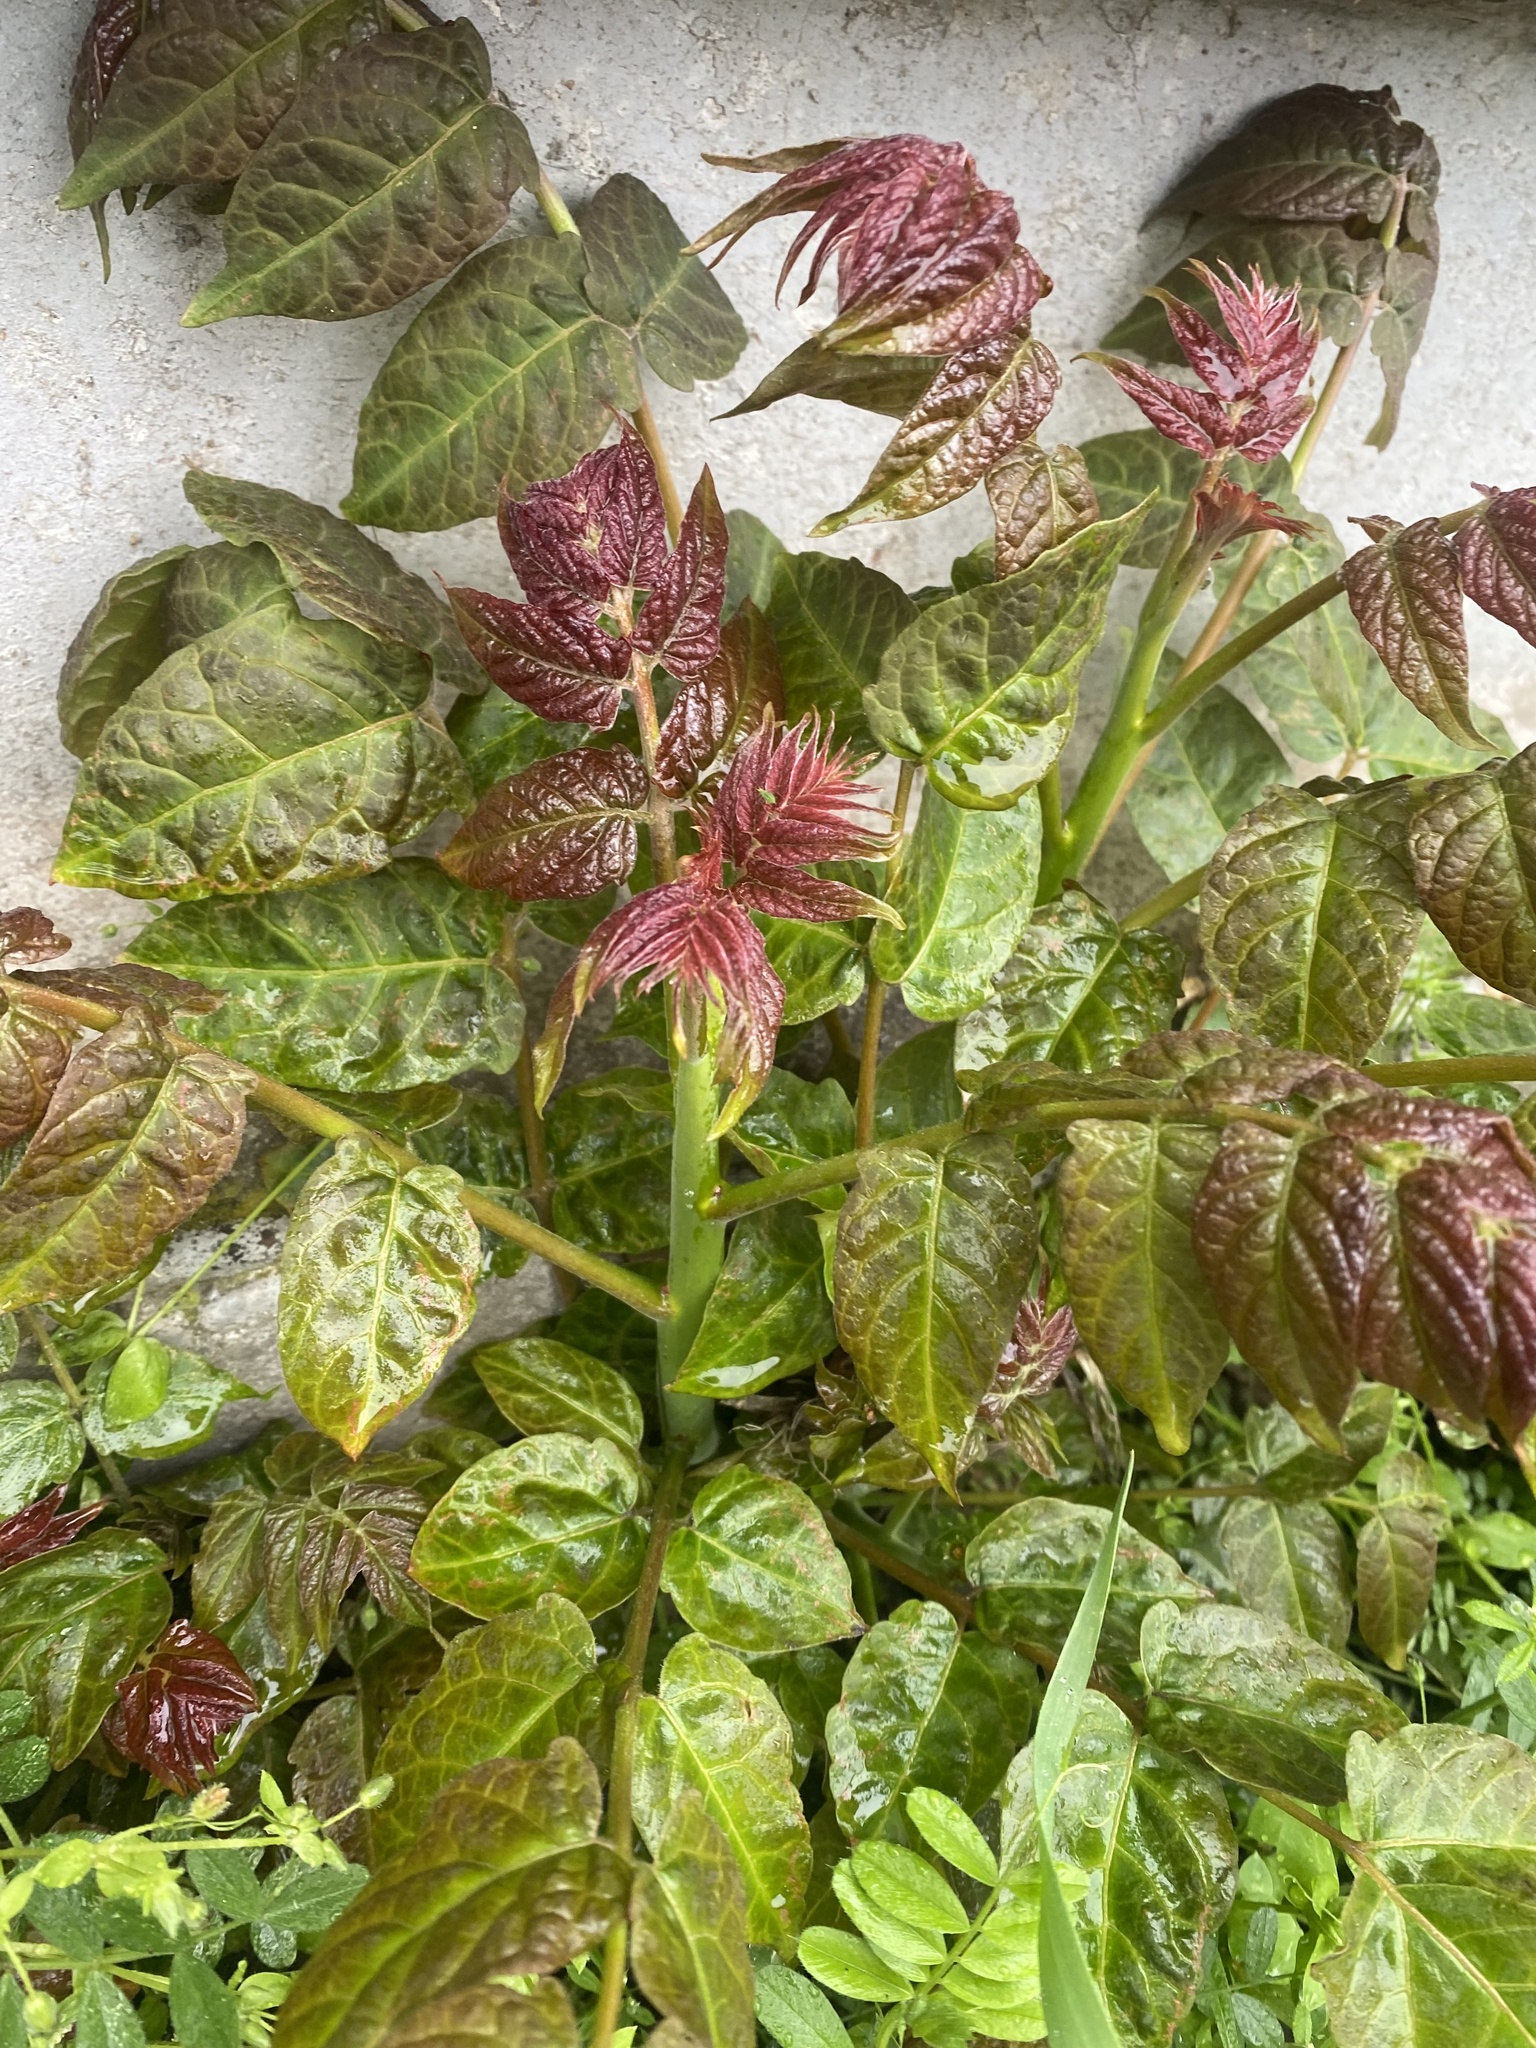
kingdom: Plantae
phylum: Tracheophyta
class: Magnoliopsida
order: Sapindales
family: Simaroubaceae
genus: Ailanthus
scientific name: Ailanthus altissima
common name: Tree-of-heaven
